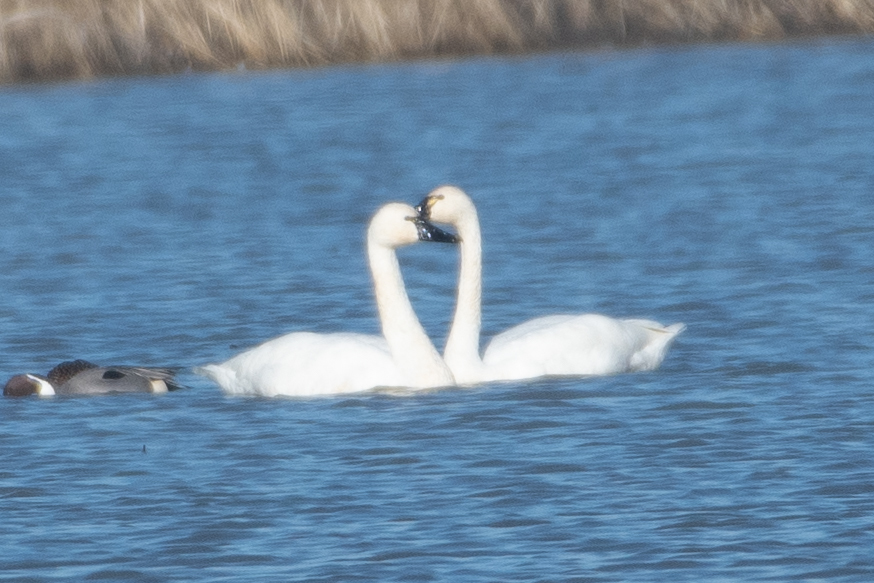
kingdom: Animalia
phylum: Chordata
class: Aves
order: Anseriformes
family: Anatidae
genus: Cygnus
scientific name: Cygnus columbianus
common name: Tundra swan
